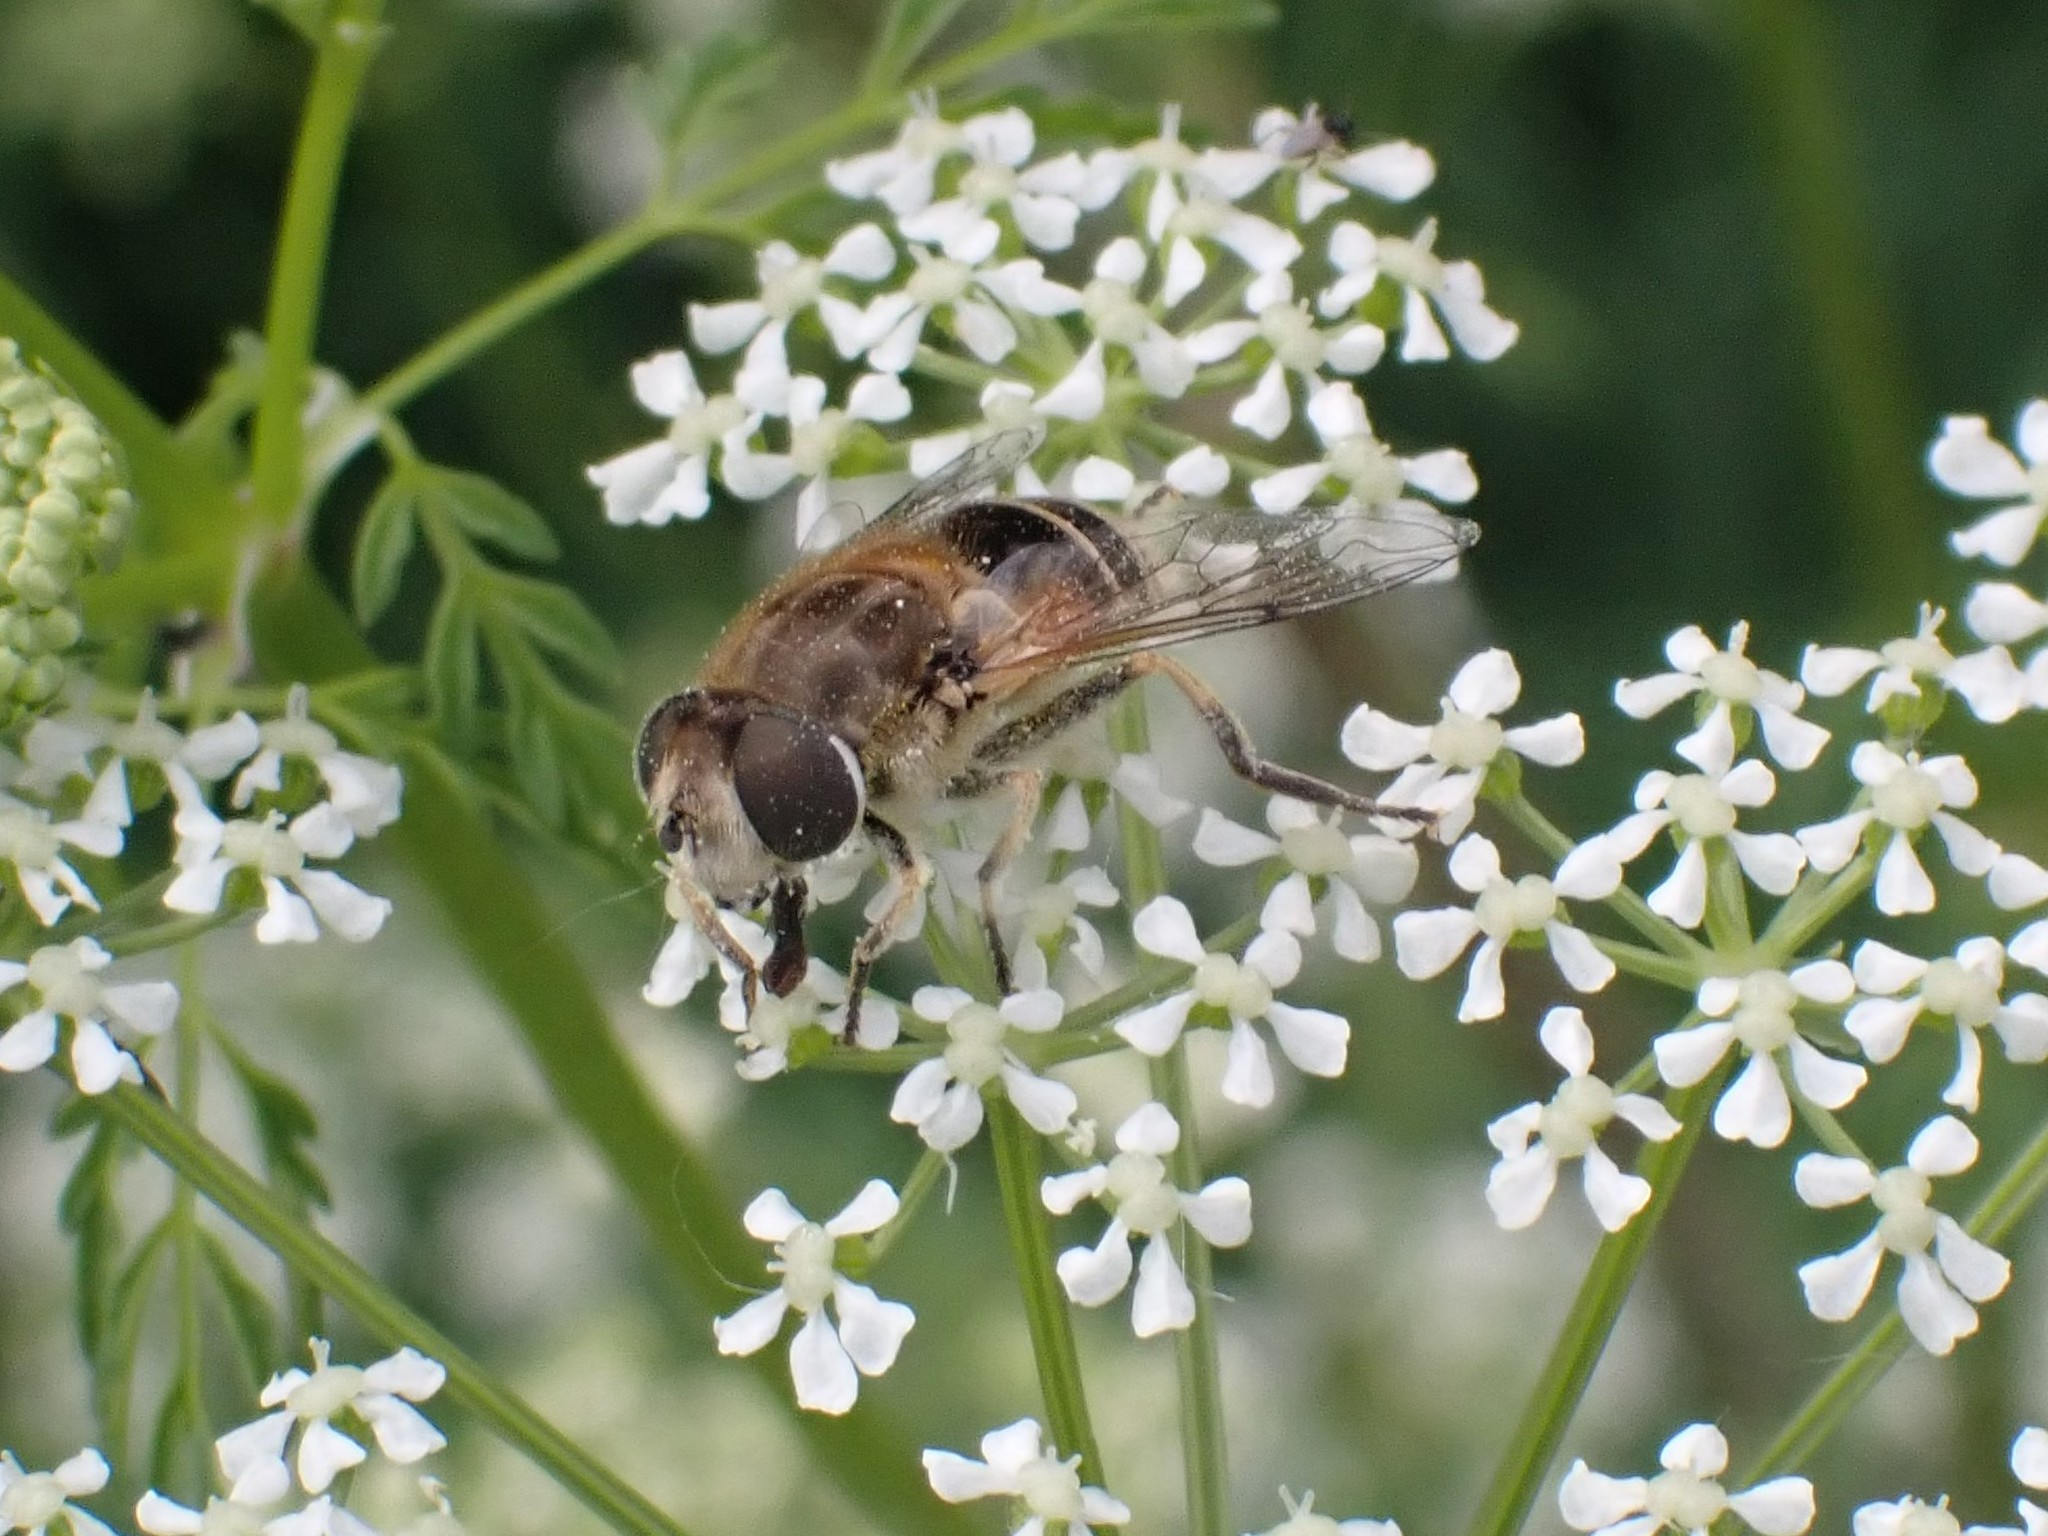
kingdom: Animalia
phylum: Arthropoda
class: Insecta
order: Diptera
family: Syrphidae
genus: Eristalis
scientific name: Eristalis arbustorum
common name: Hover fly
